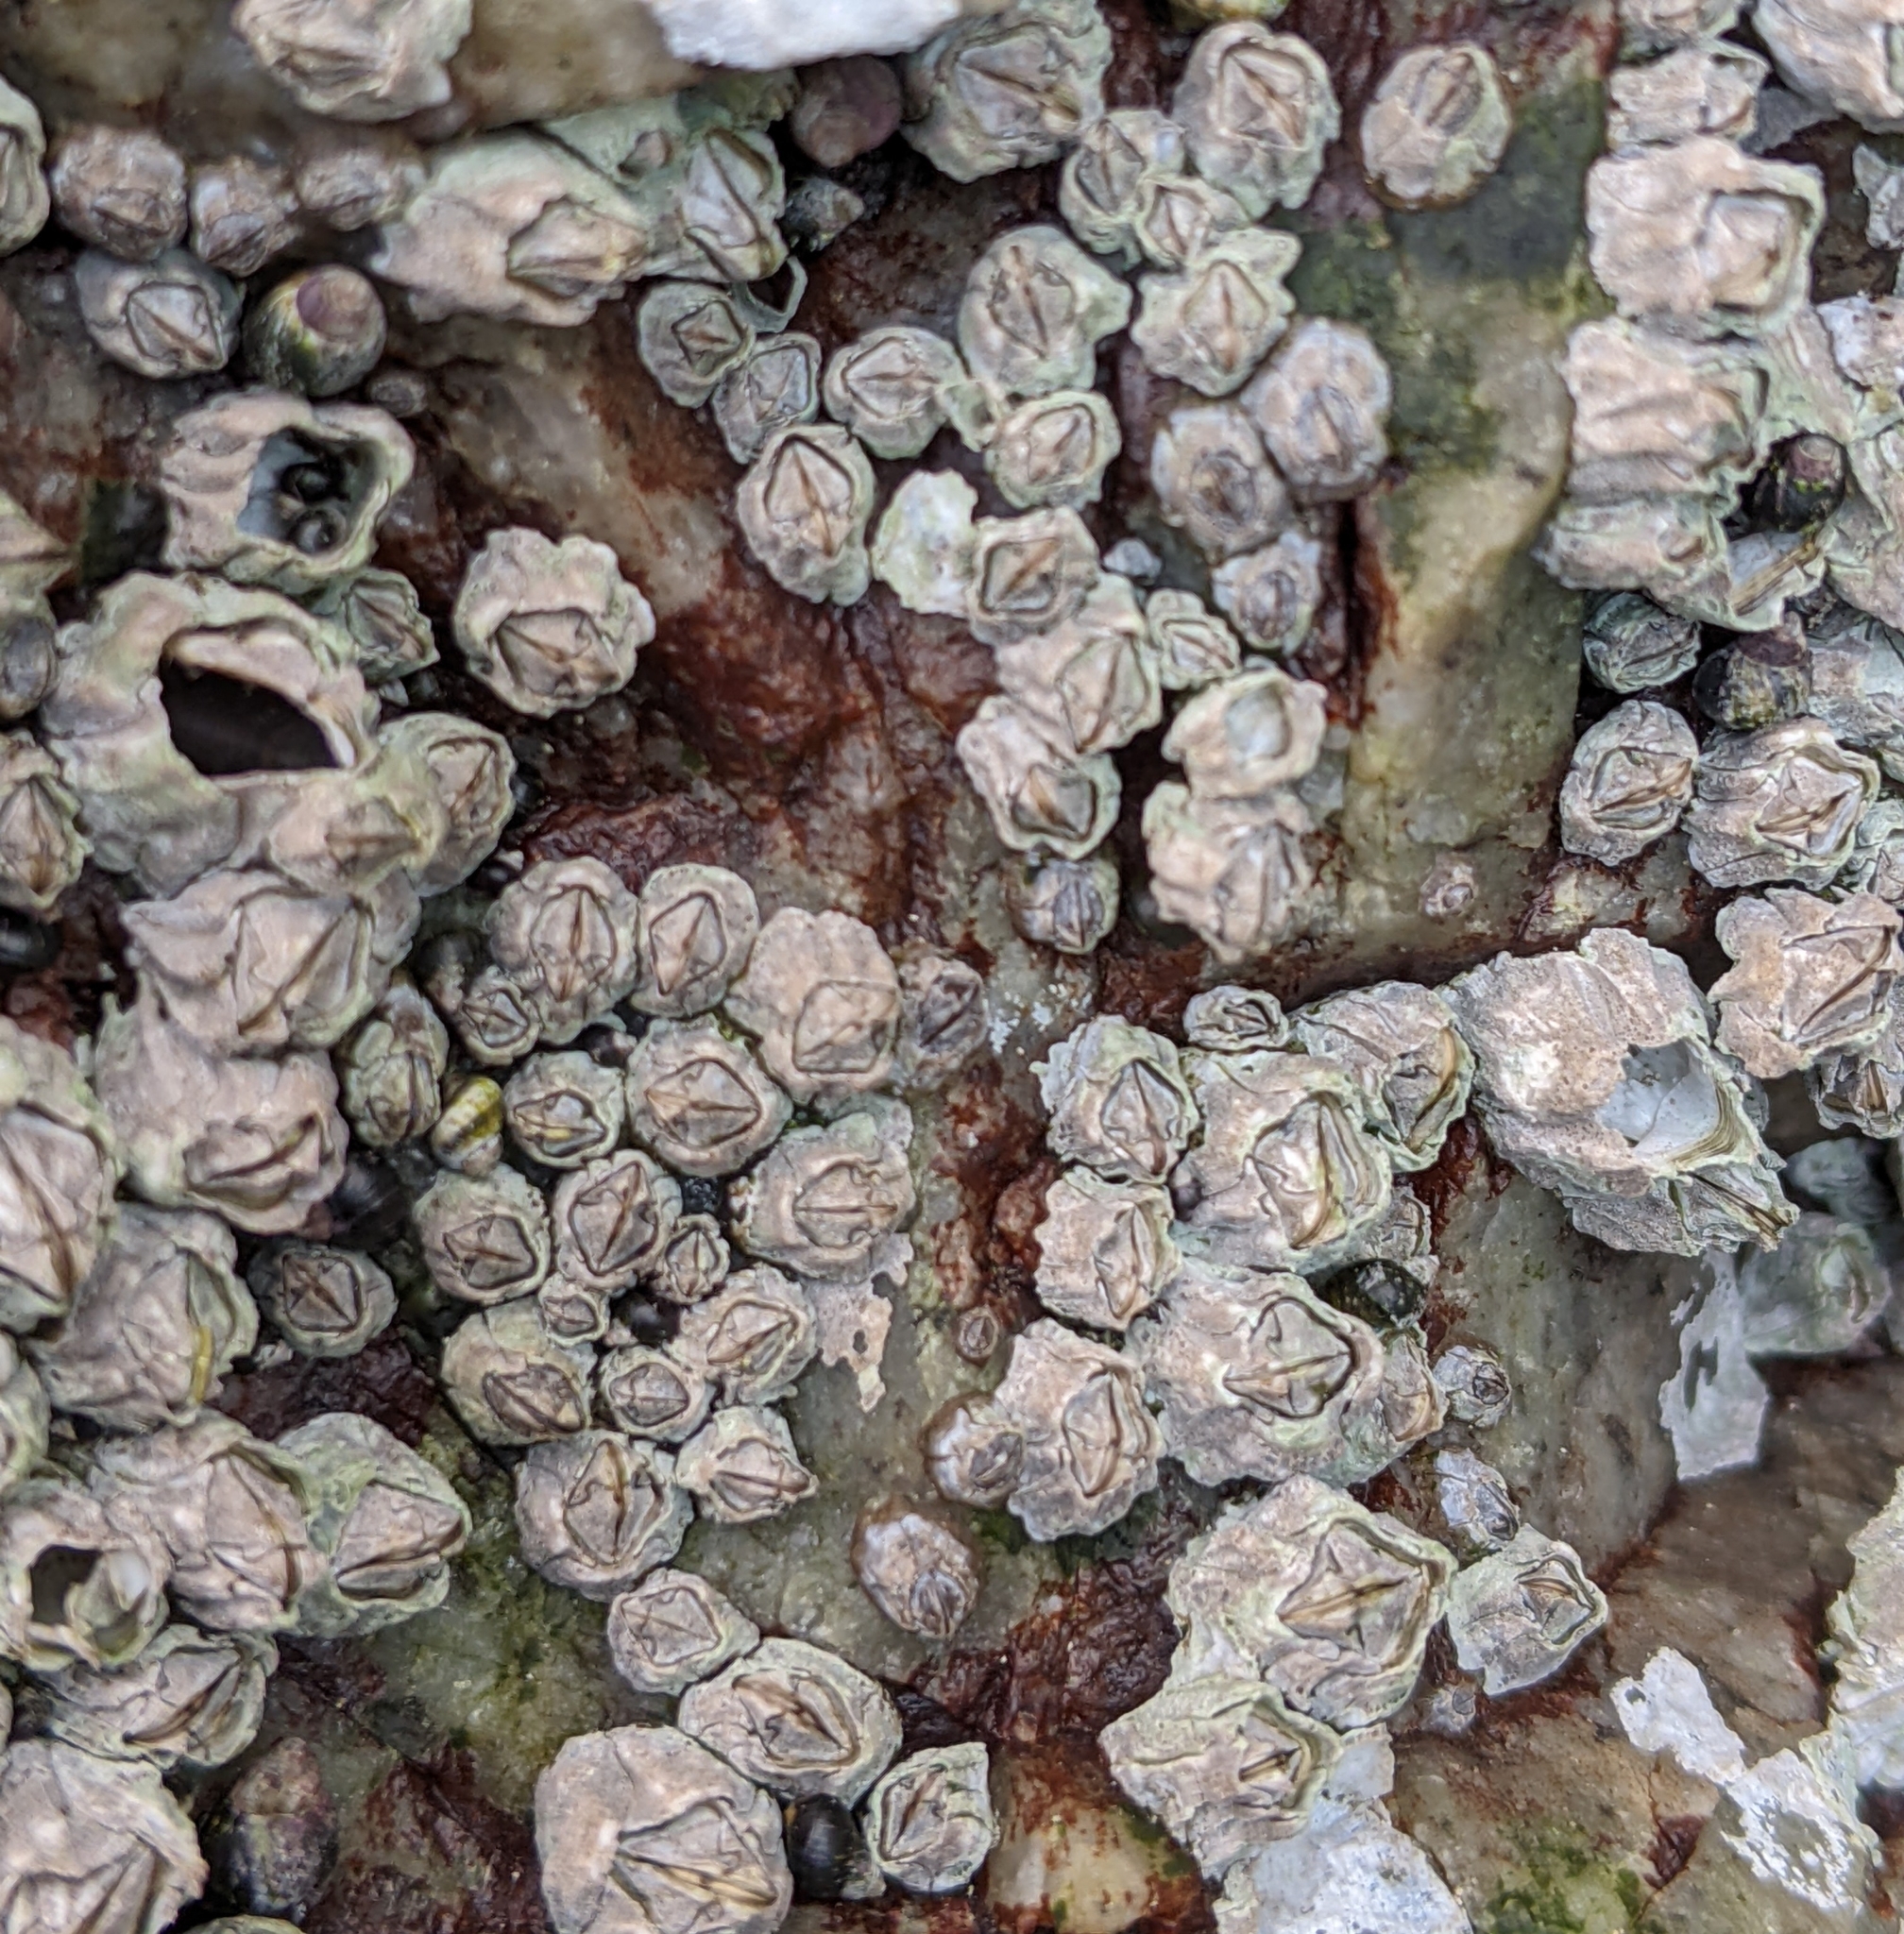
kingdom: Animalia
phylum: Arthropoda
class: Maxillopoda
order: Sessilia
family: Balanidae
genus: Balanus
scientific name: Balanus glandula
